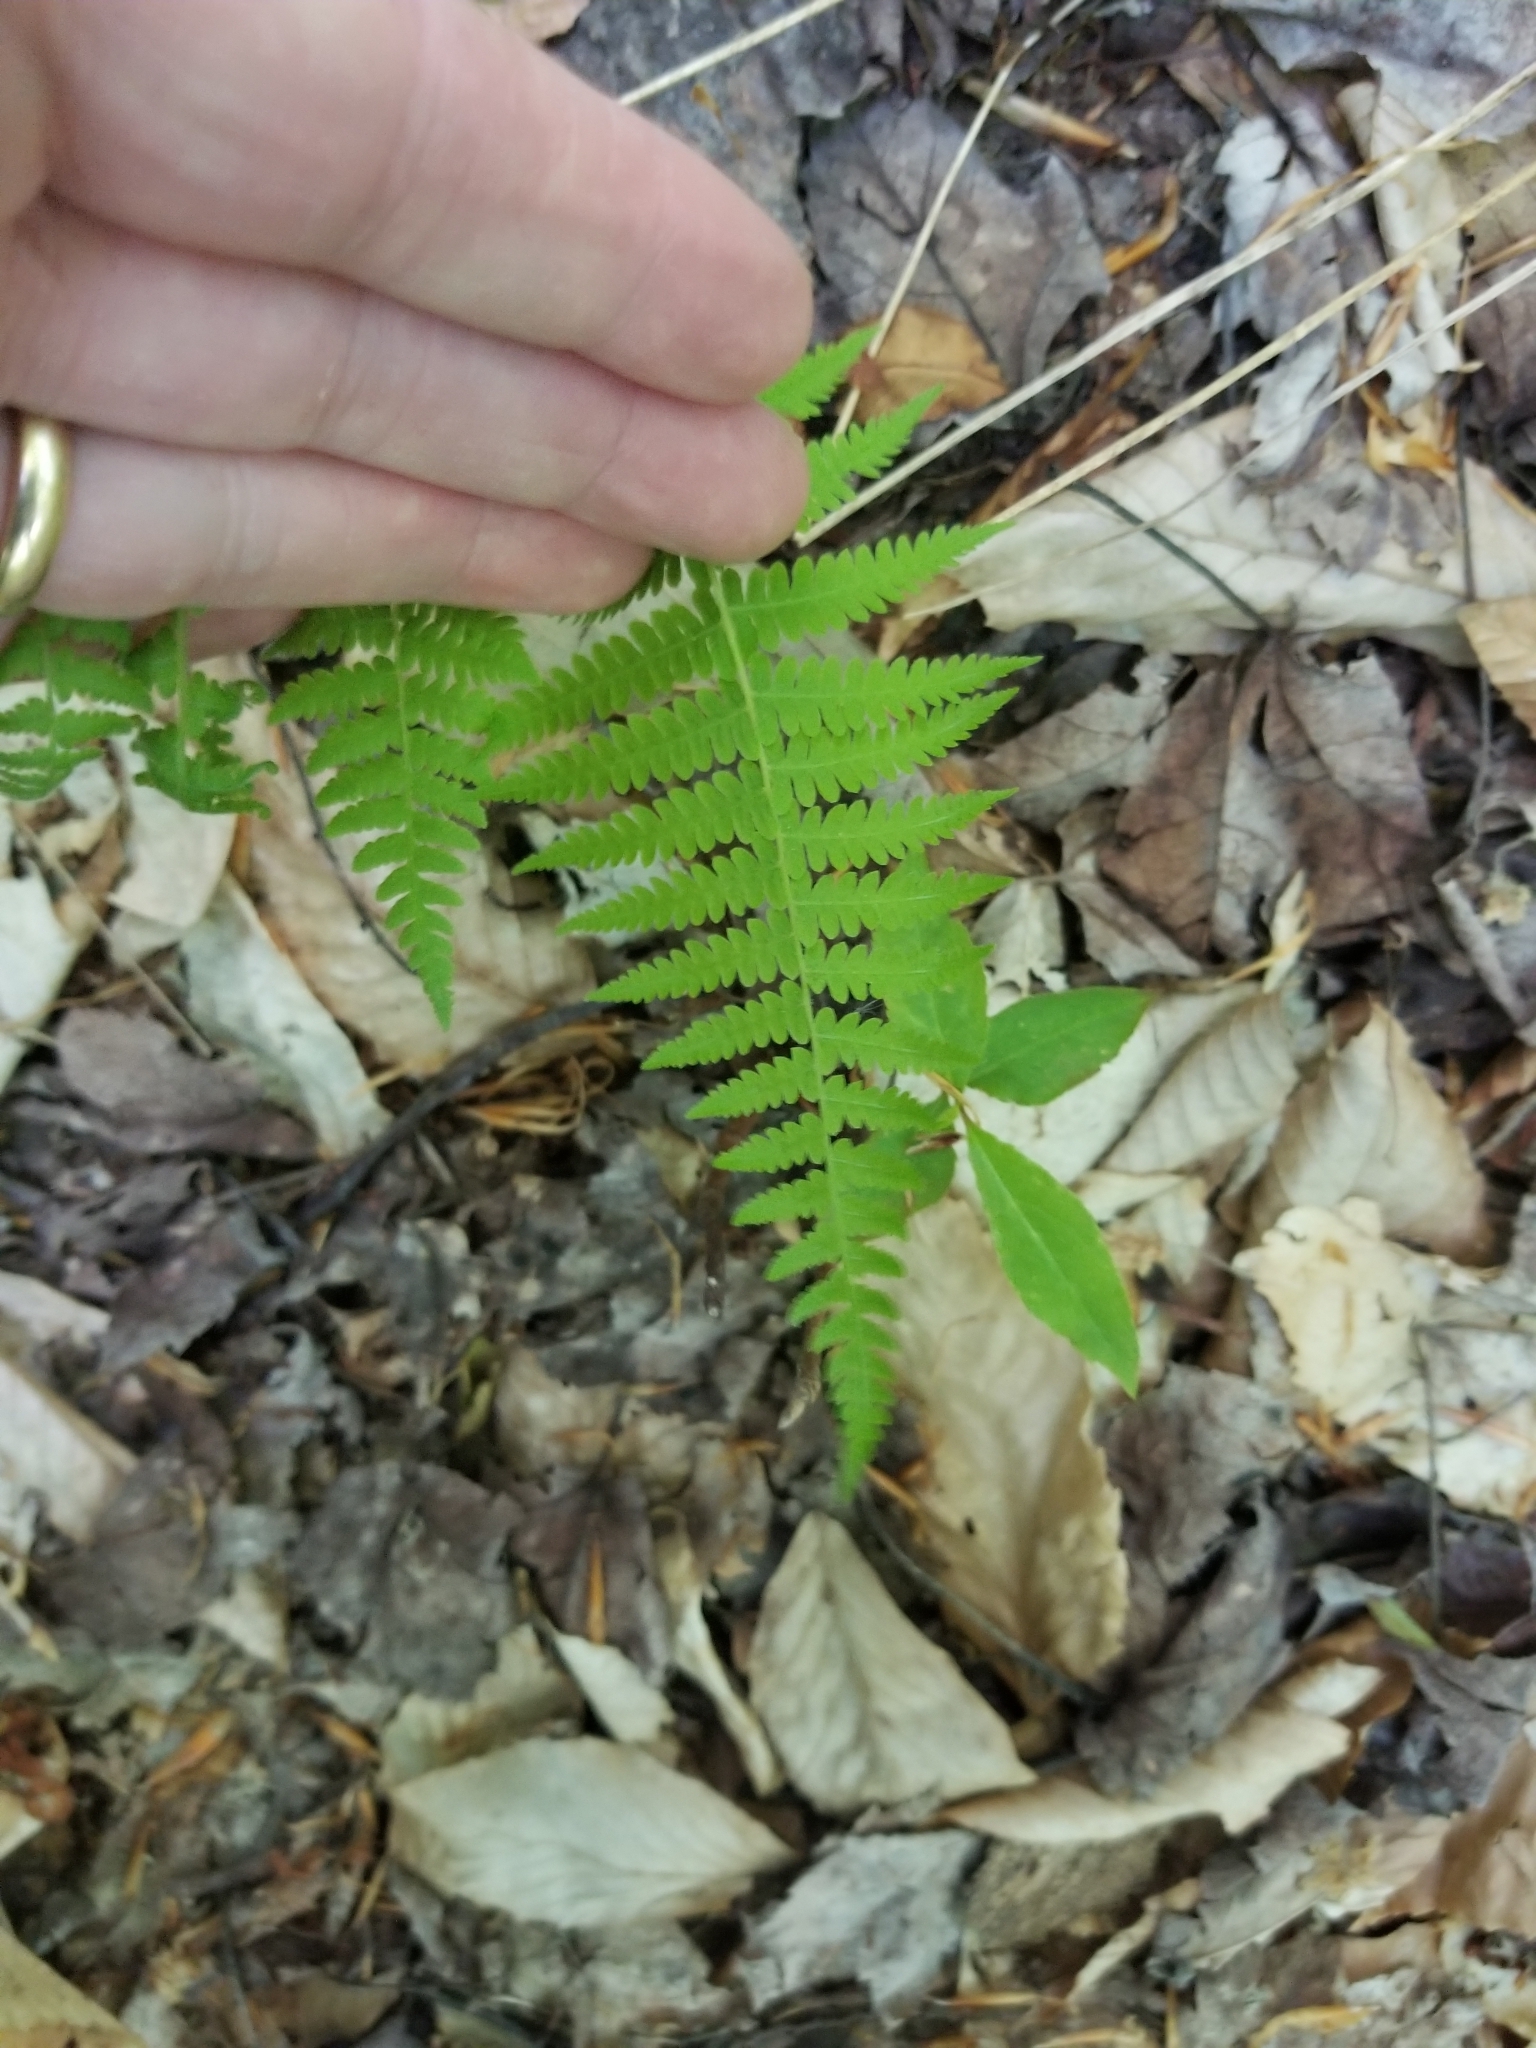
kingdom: Plantae
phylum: Tracheophyta
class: Polypodiopsida
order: Polypodiales
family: Thelypteridaceae
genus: Amauropelta
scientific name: Amauropelta noveboracensis
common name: New york fern
